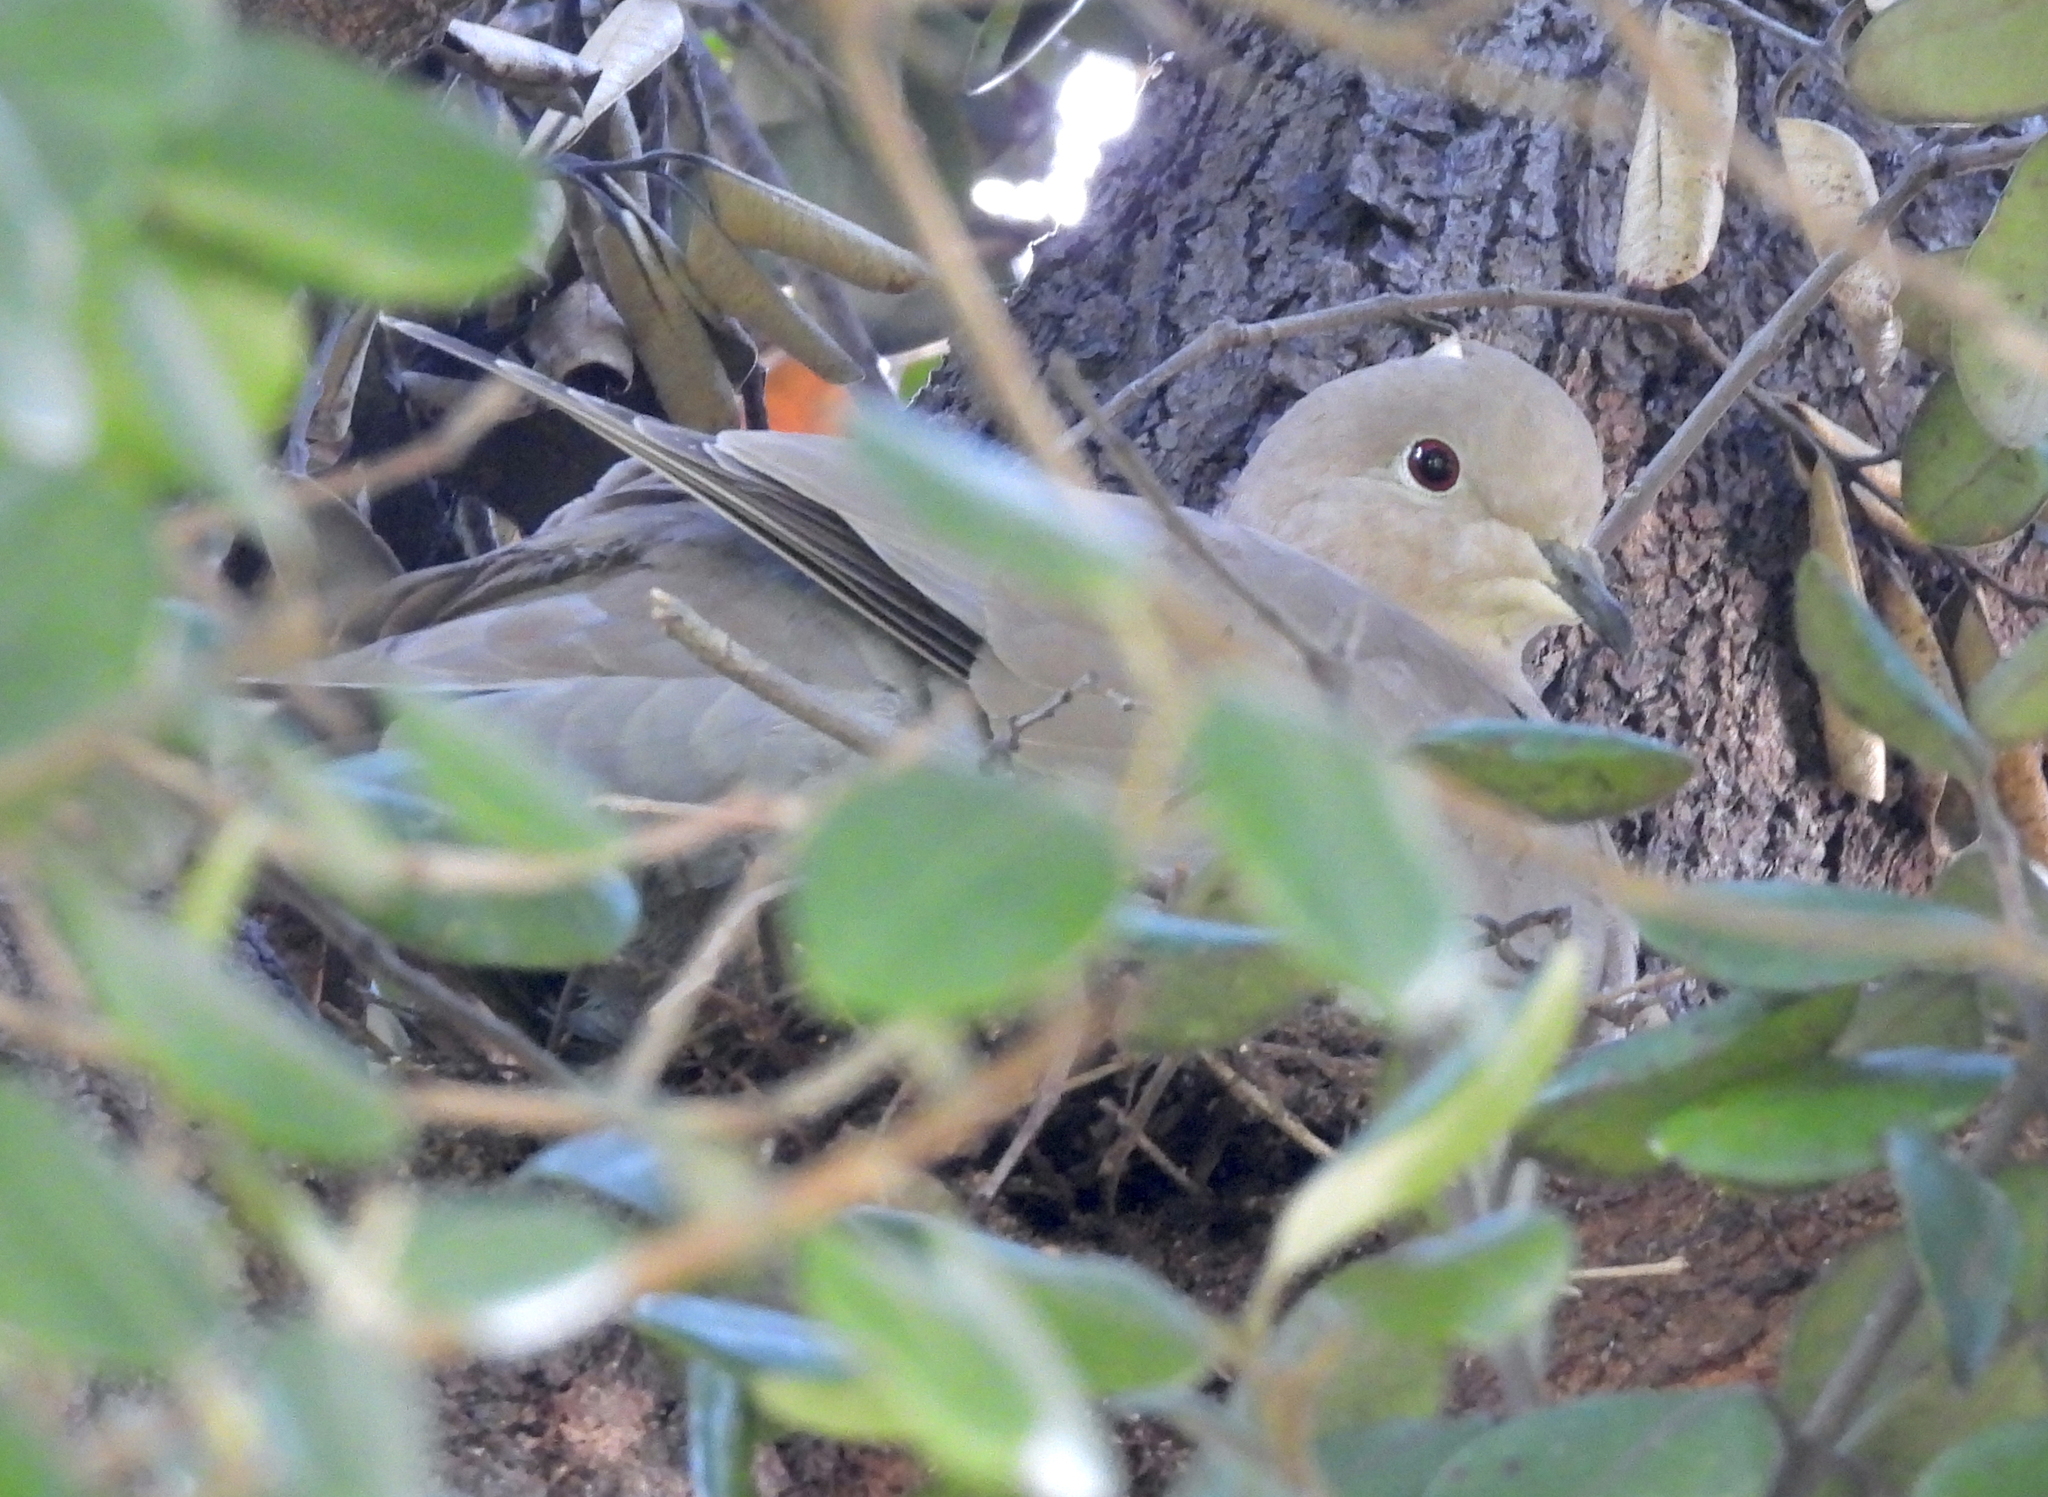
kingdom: Animalia
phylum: Chordata
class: Aves
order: Columbiformes
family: Columbidae
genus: Streptopelia
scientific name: Streptopelia decaocto
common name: Eurasian collared dove
